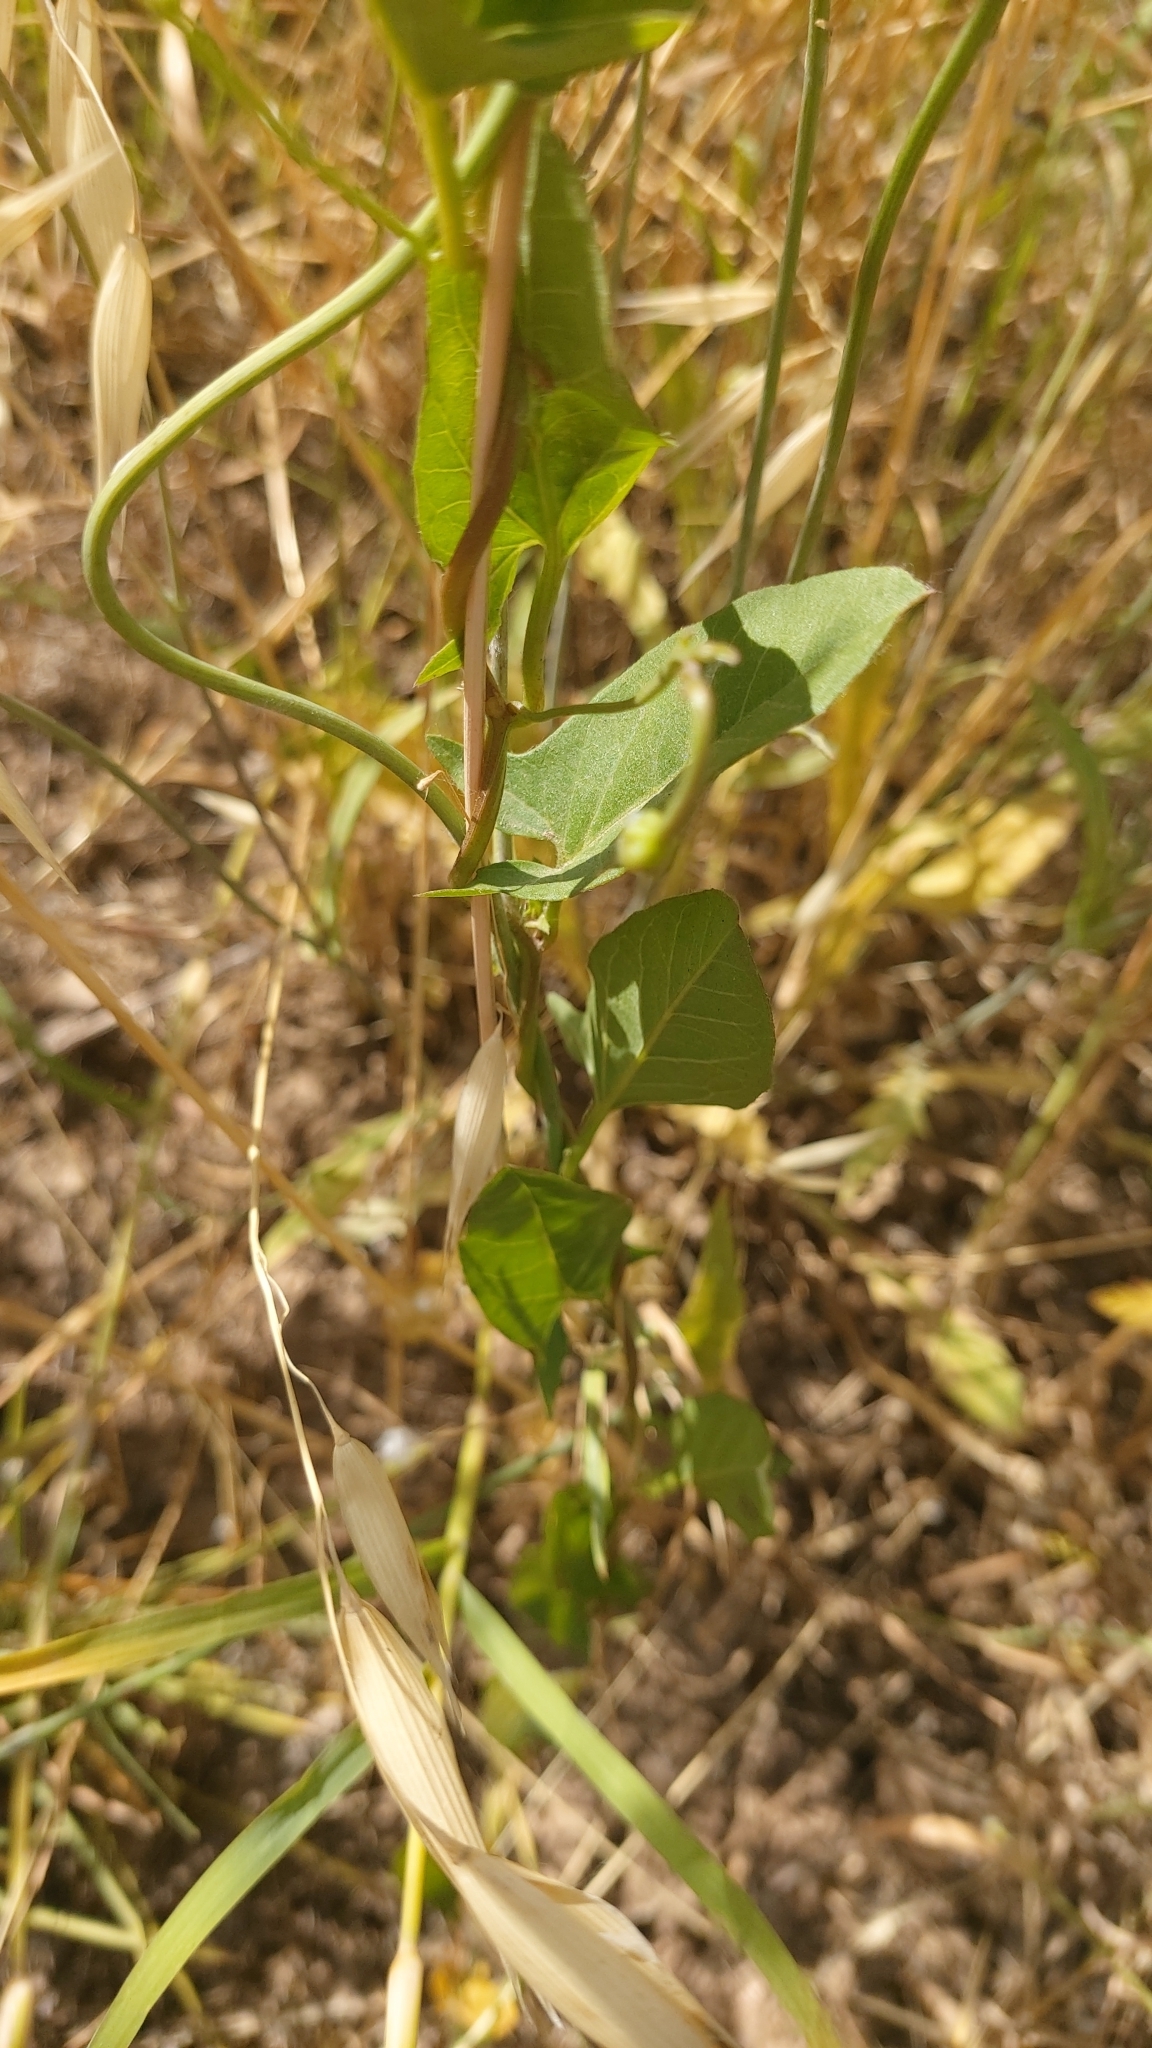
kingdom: Plantae
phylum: Tracheophyta
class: Magnoliopsida
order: Solanales
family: Convolvulaceae
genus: Convolvulus
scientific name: Convolvulus arvensis
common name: Field bindweed
